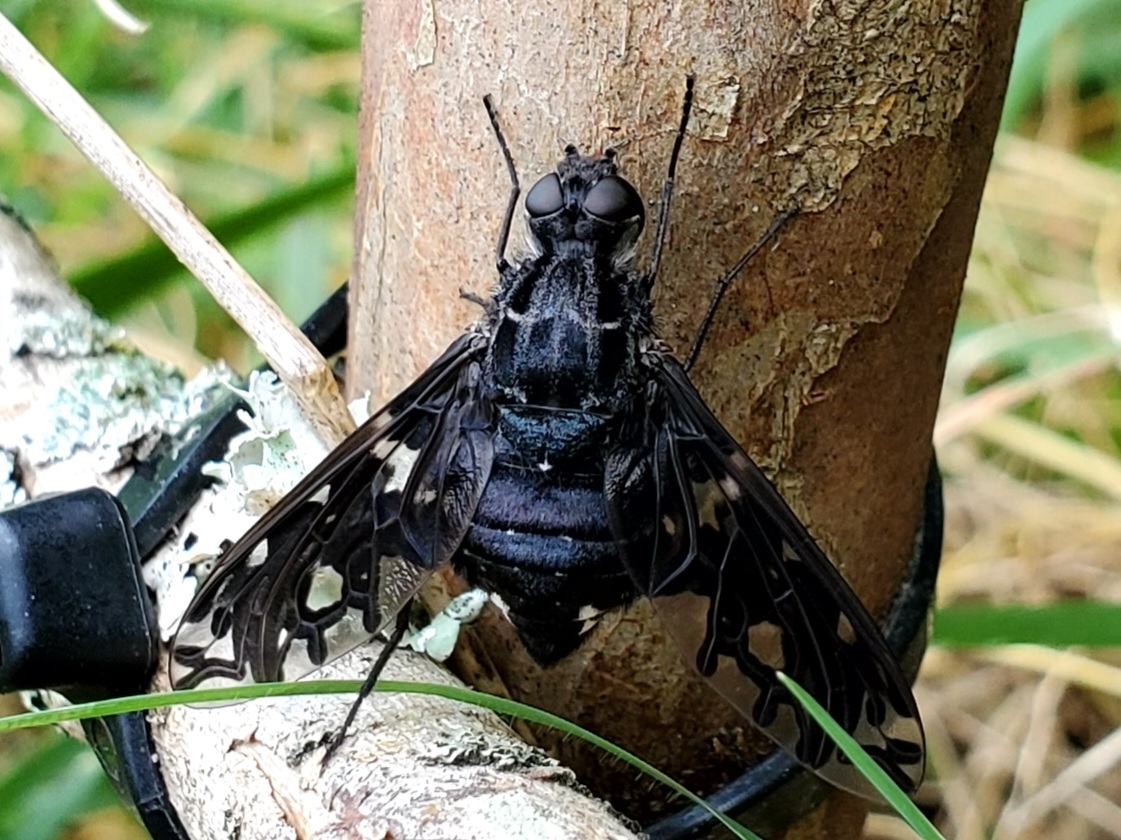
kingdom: Animalia
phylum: Arthropoda
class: Insecta
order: Diptera
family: Bombyliidae
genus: Xenox
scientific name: Xenox tigrinus
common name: Tiger bee fly
